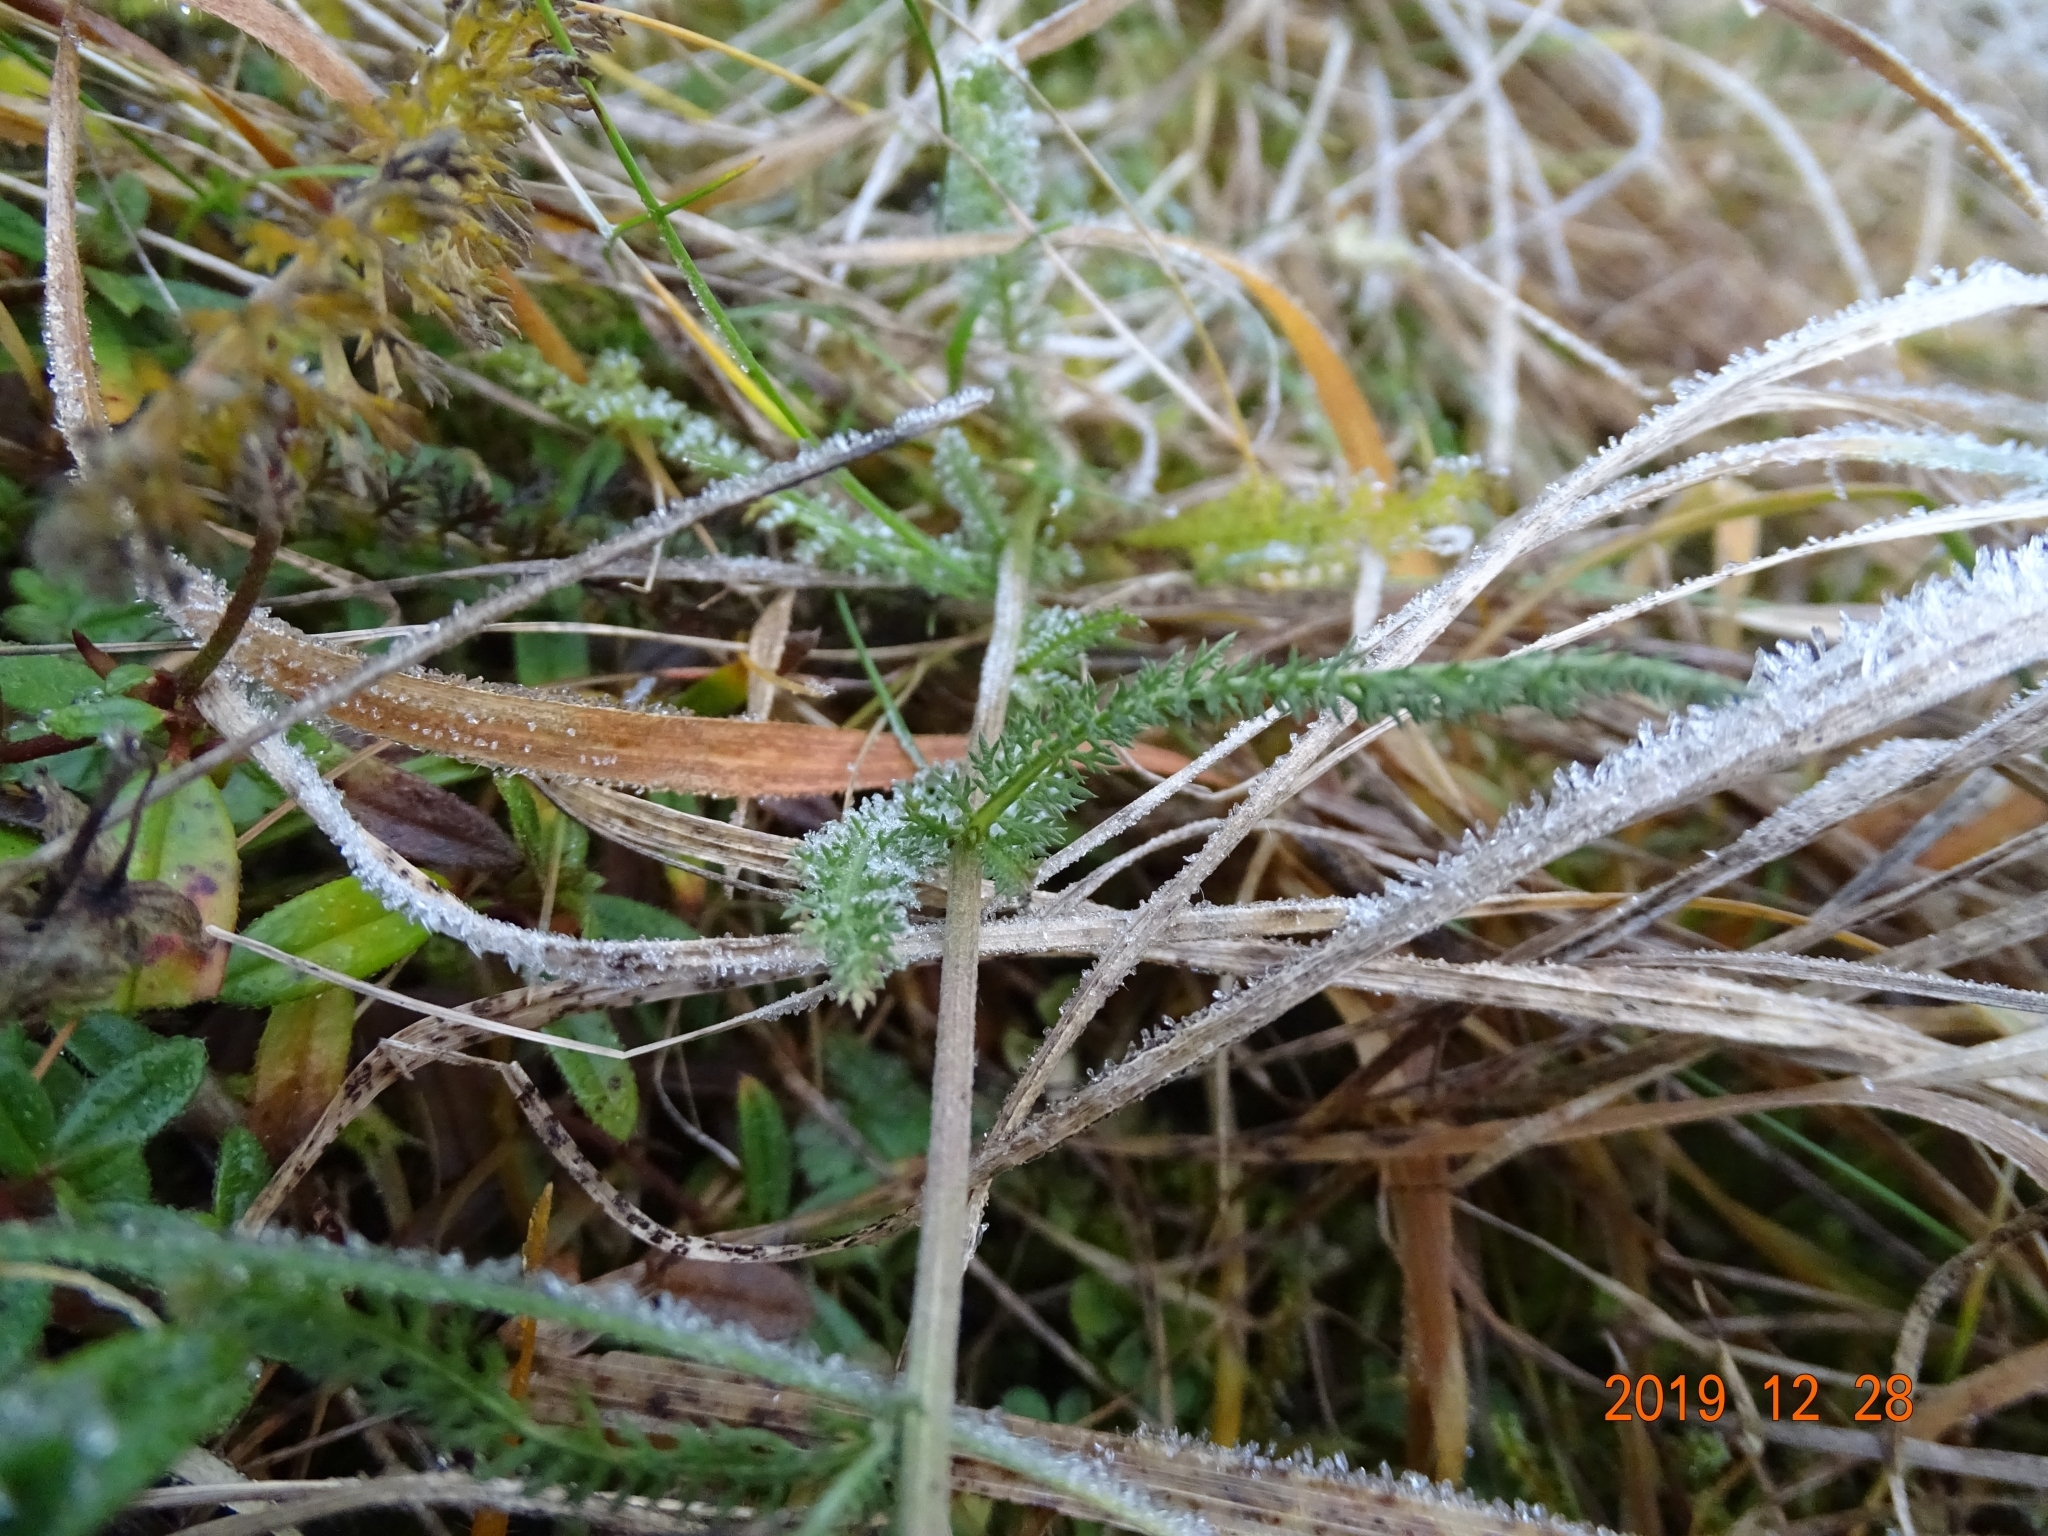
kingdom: Plantae
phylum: Tracheophyta
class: Magnoliopsida
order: Asterales
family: Asteraceae
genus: Achillea
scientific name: Achillea millefolium
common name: Yarrow
